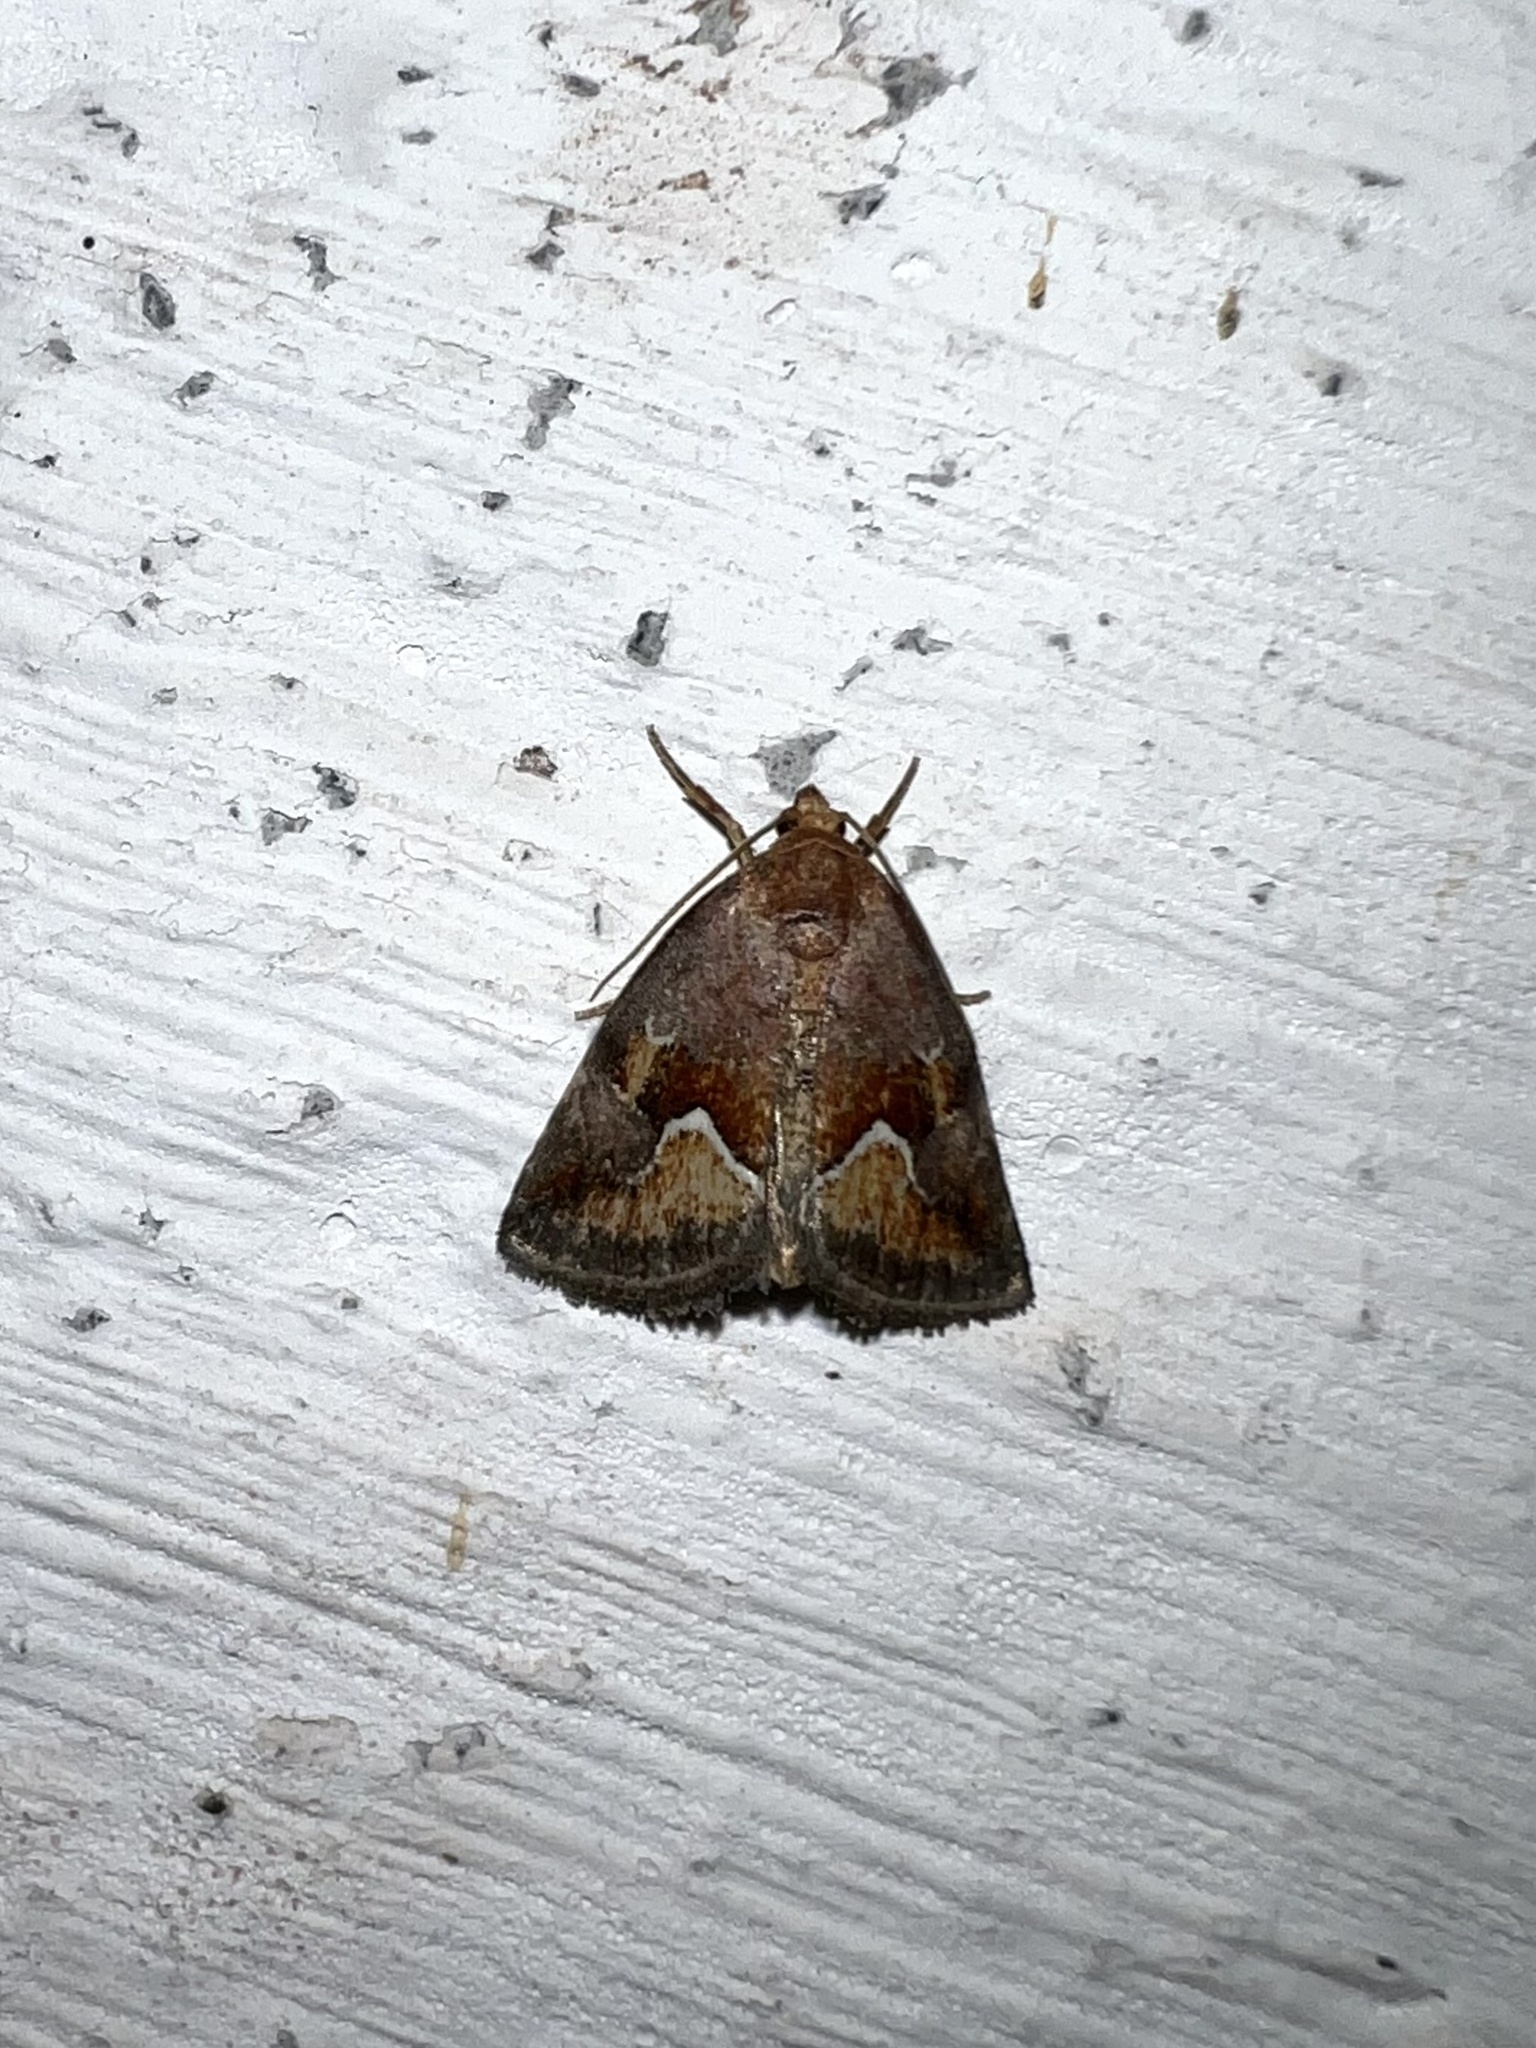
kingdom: Animalia
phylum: Arthropoda
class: Insecta
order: Lepidoptera
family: Noctuidae
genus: Deltote
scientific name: Deltote bellicula
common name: Bog glyph
